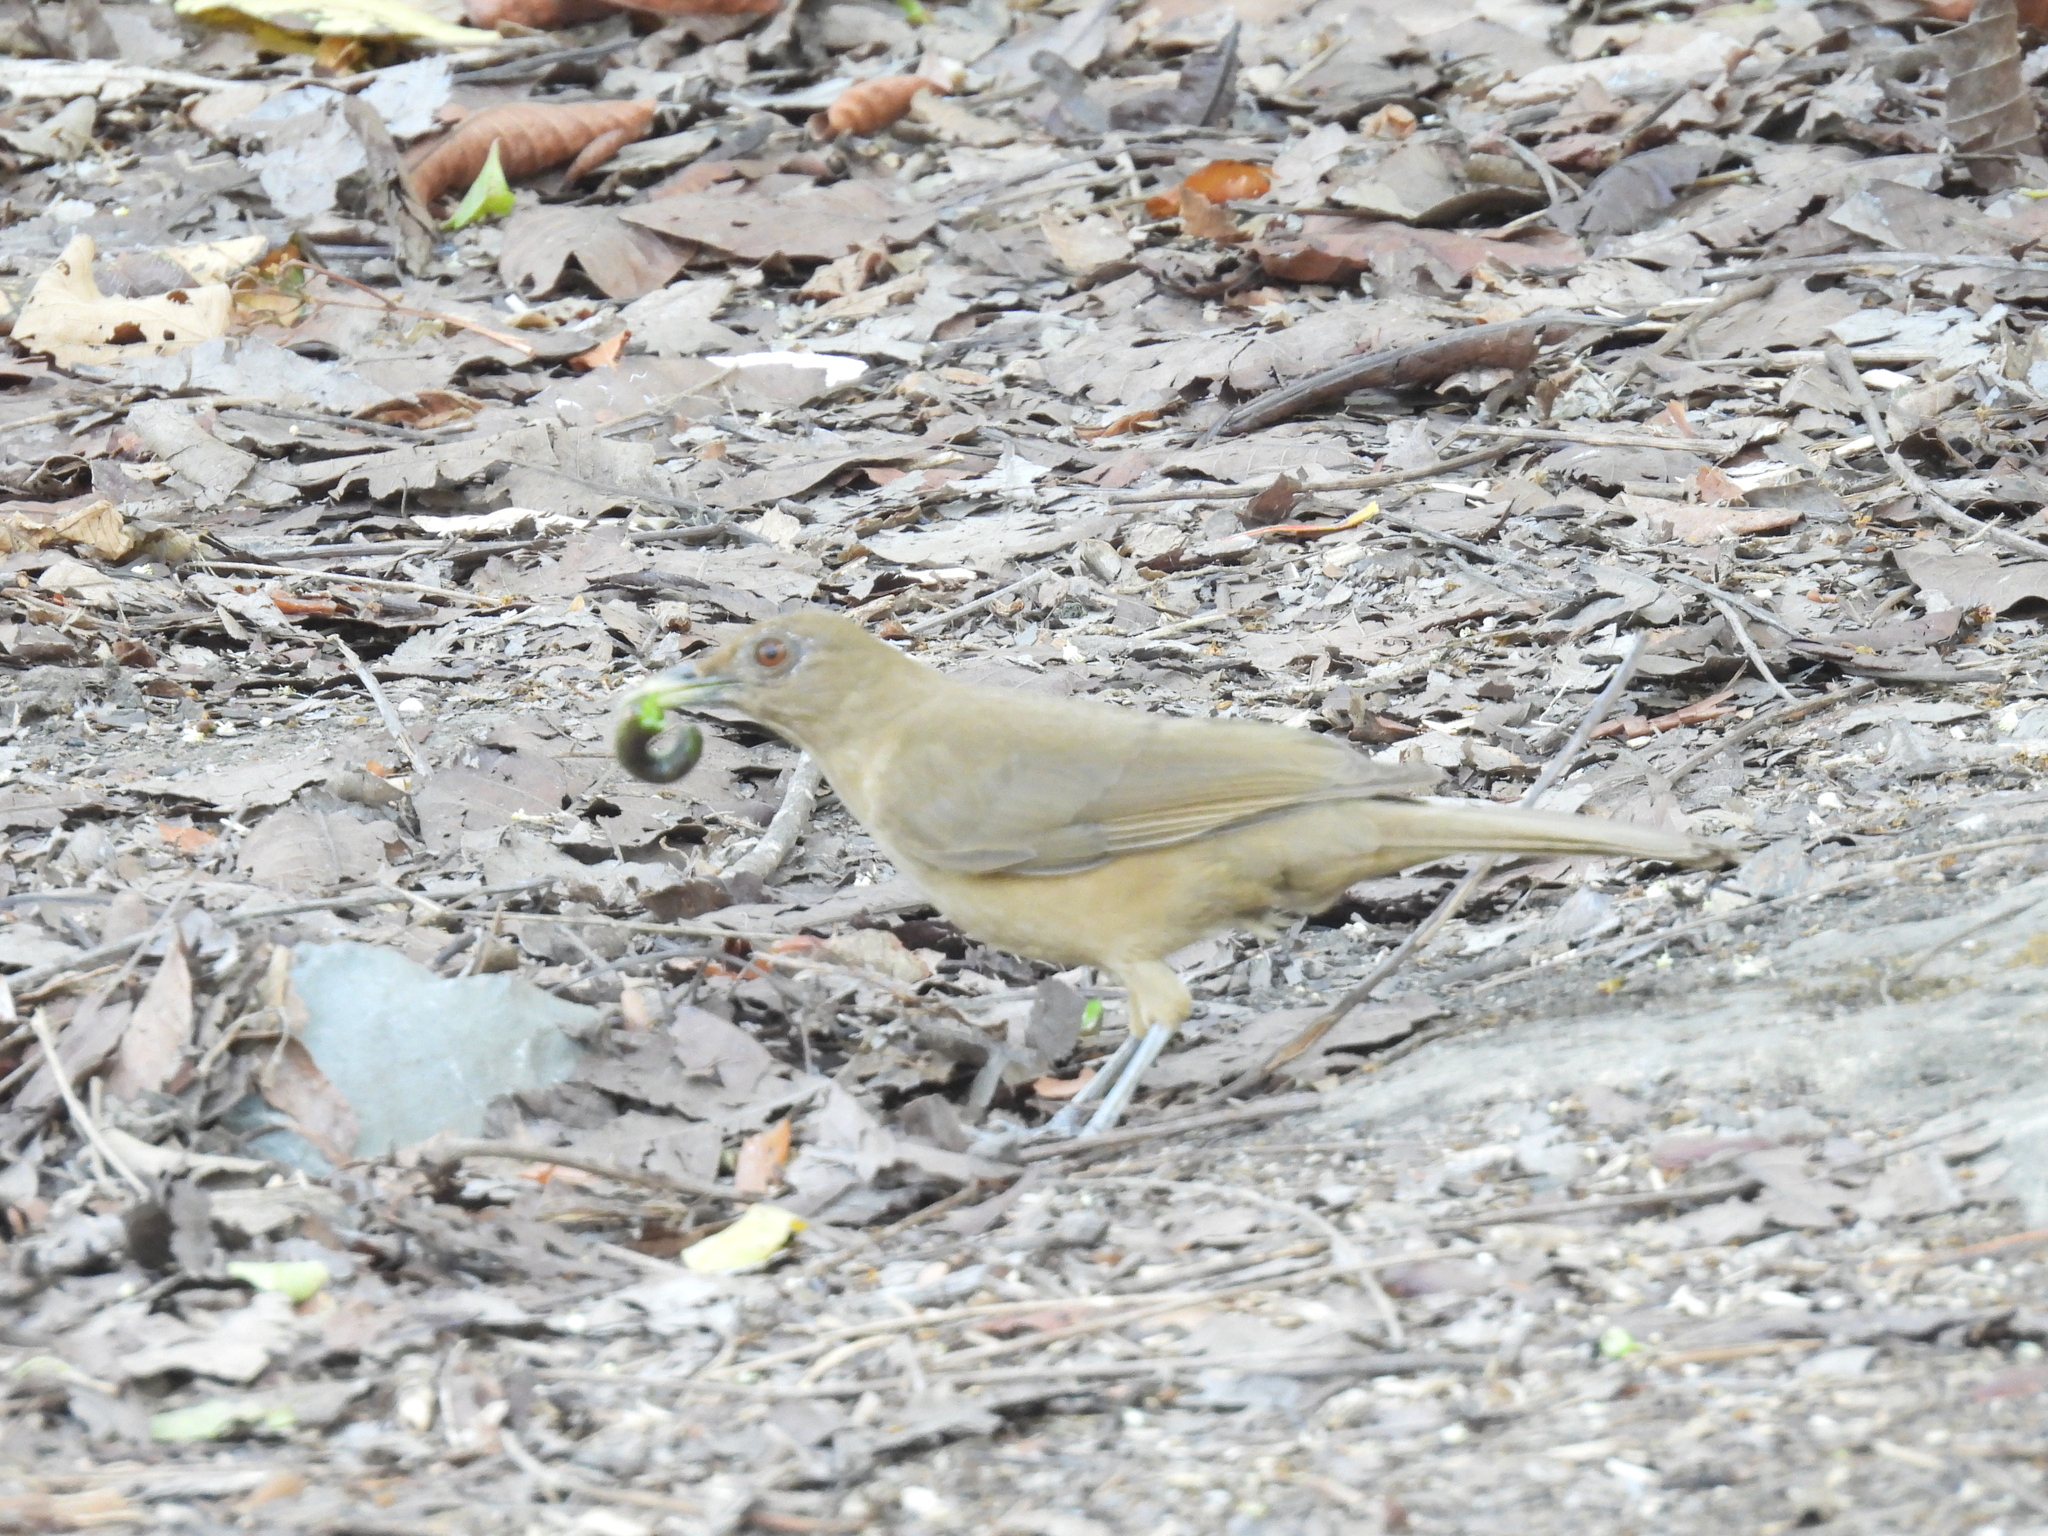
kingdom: Animalia
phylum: Chordata
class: Aves
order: Passeriformes
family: Turdidae
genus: Turdus
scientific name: Turdus grayi
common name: Clay-colored thrush
